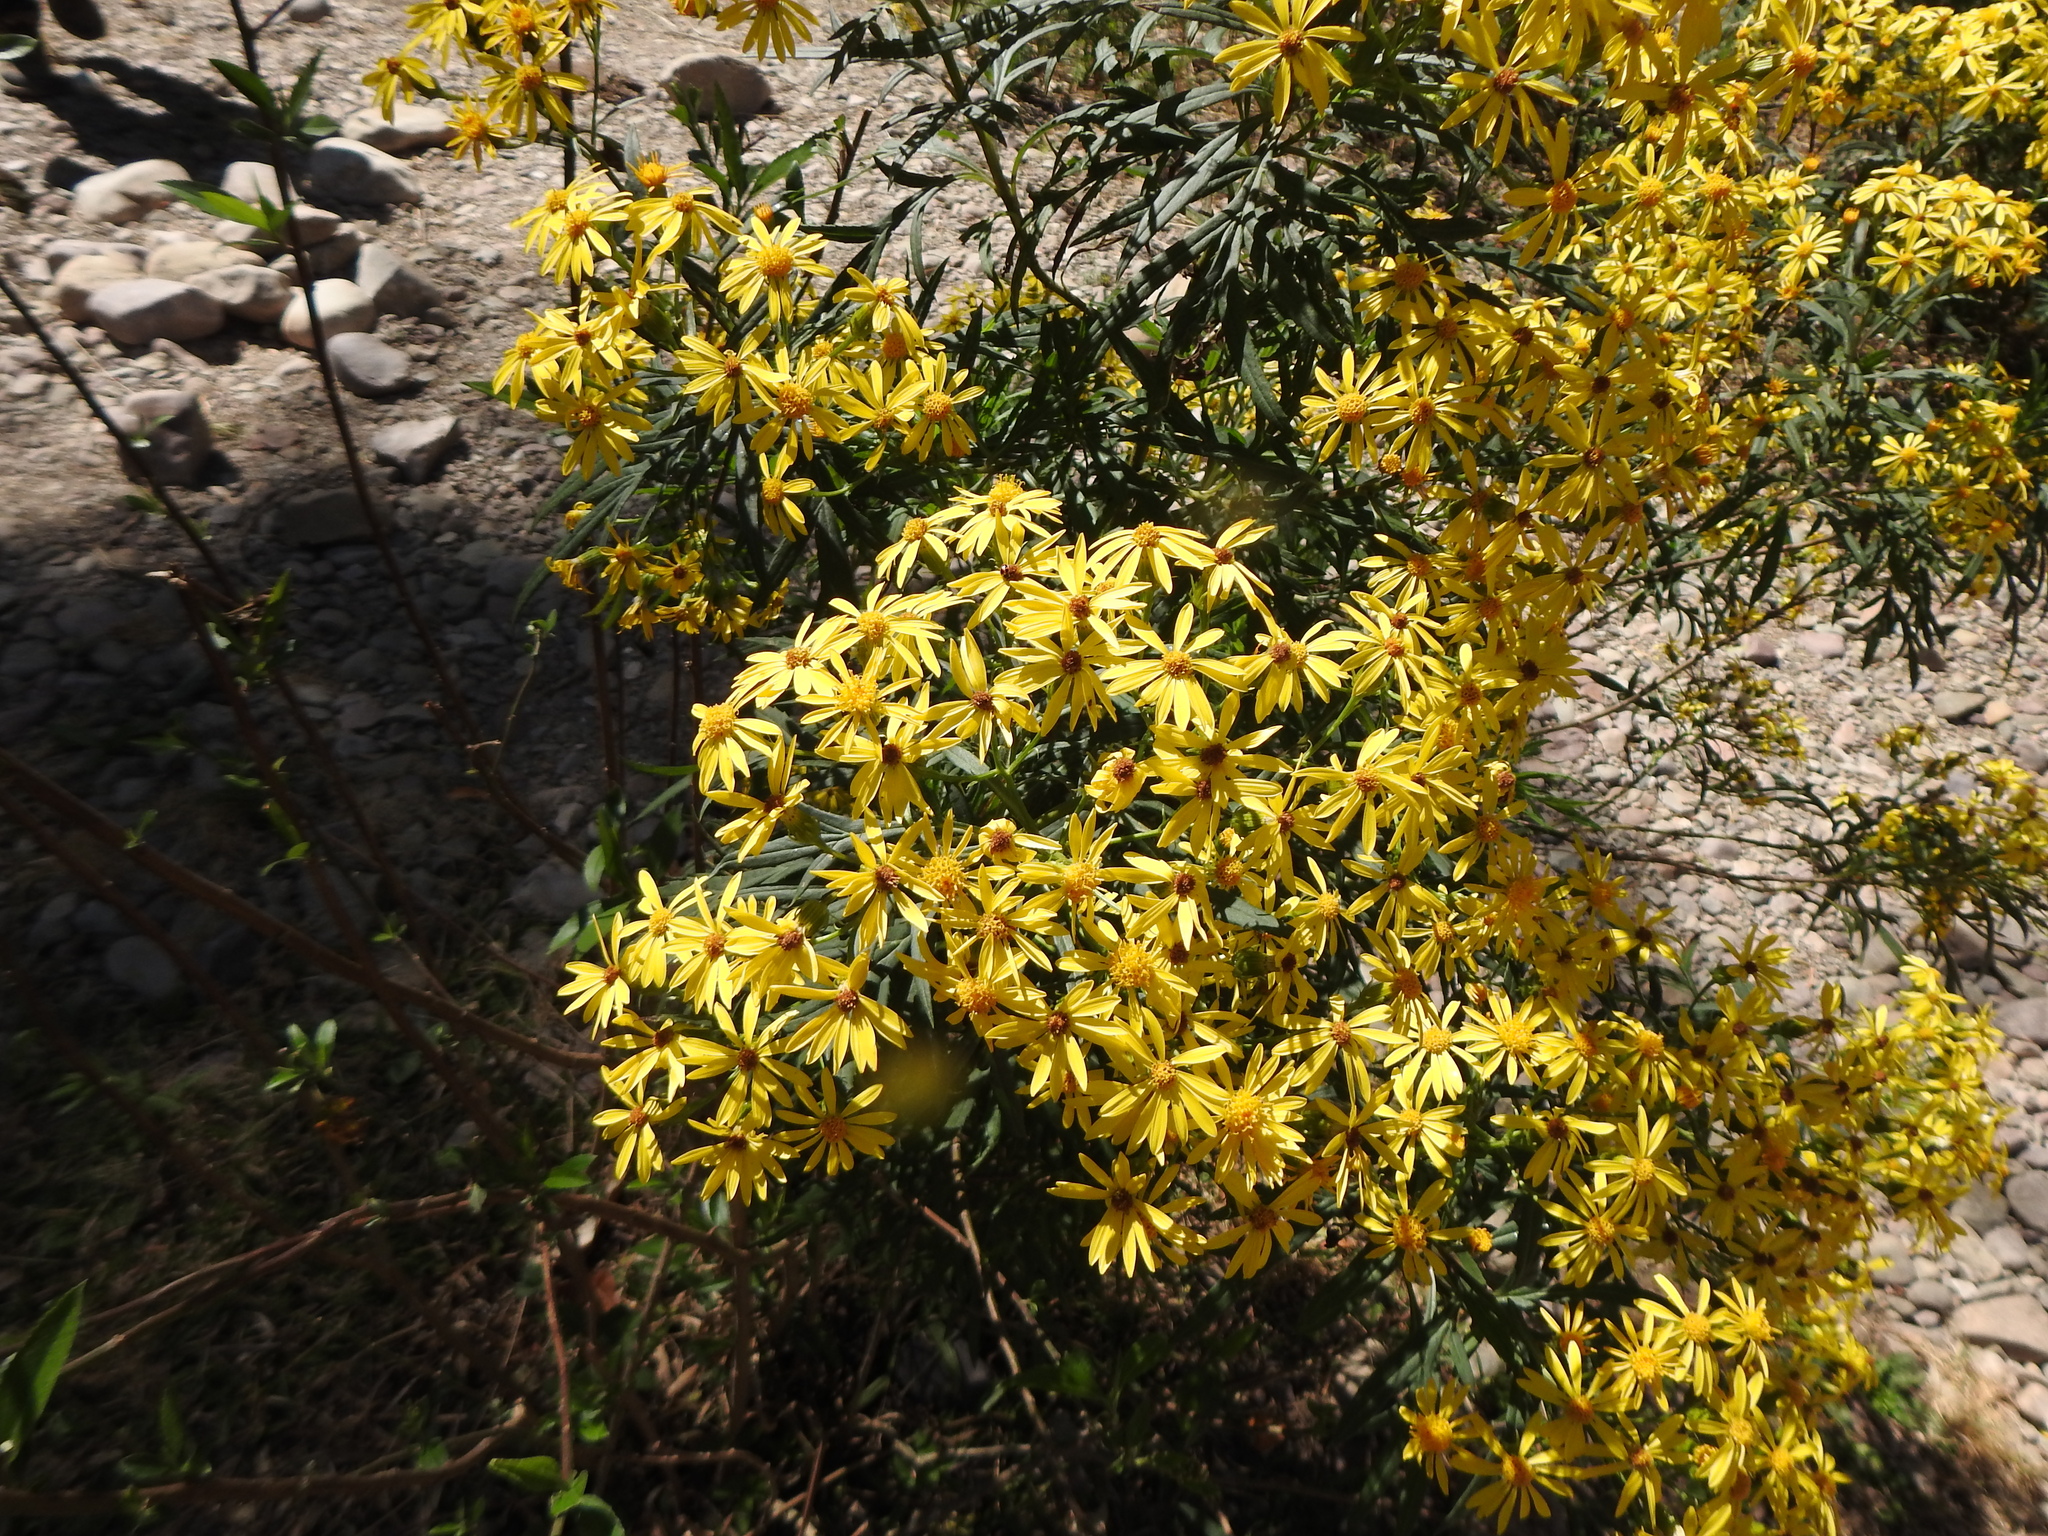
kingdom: Plantae
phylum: Tracheophyta
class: Magnoliopsida
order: Asterales
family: Asteraceae
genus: Senecio
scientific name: Senecio rudbeckiifolius
